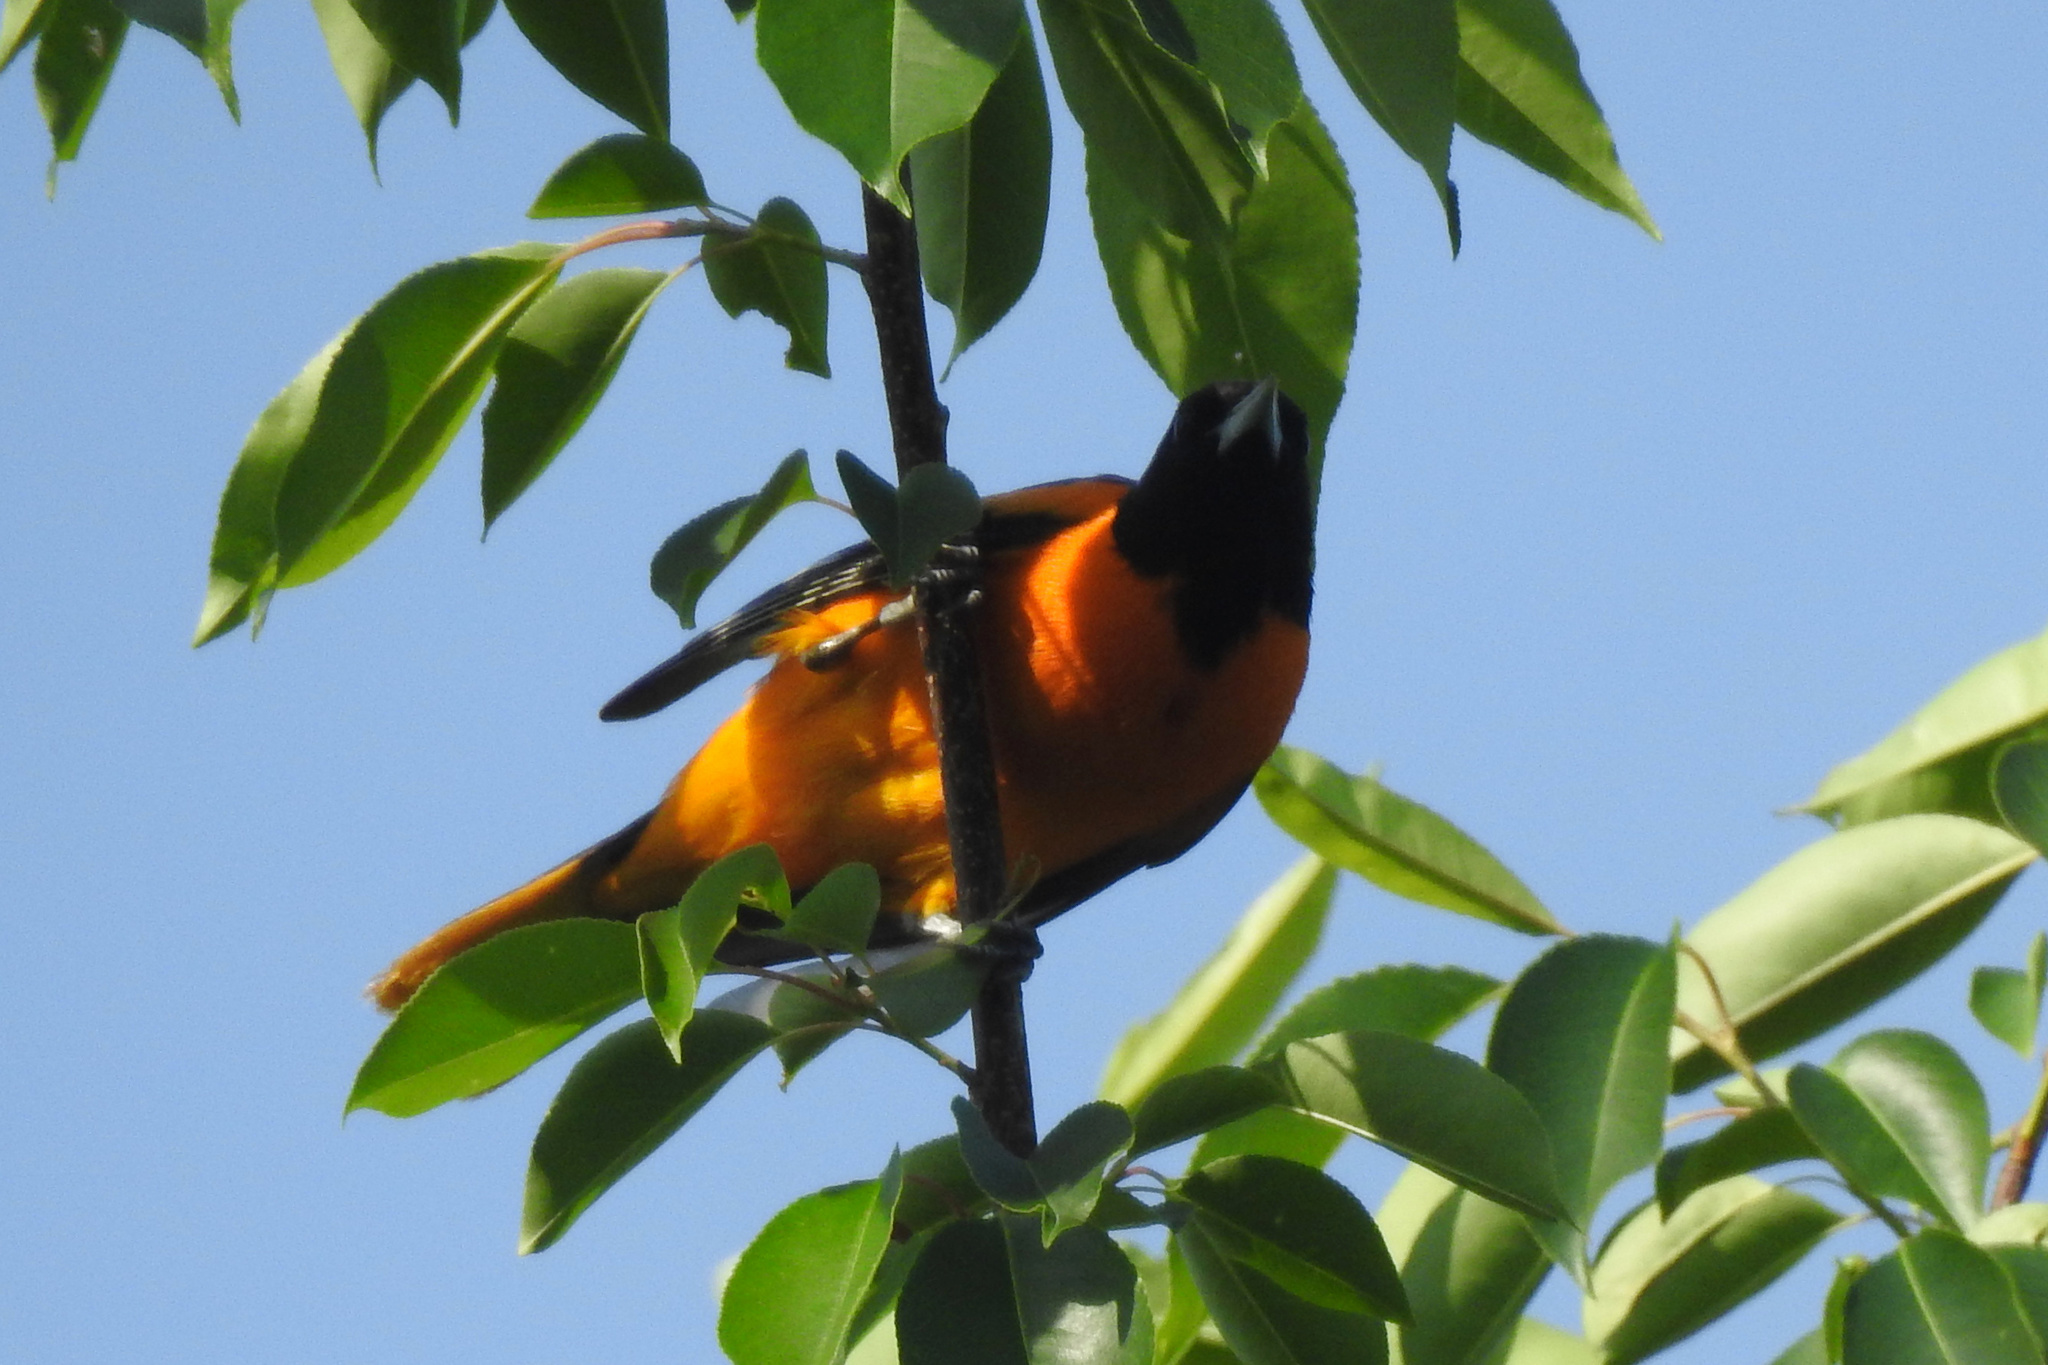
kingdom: Animalia
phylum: Chordata
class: Aves
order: Passeriformes
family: Icteridae
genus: Icterus
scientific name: Icterus galbula
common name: Baltimore oriole
